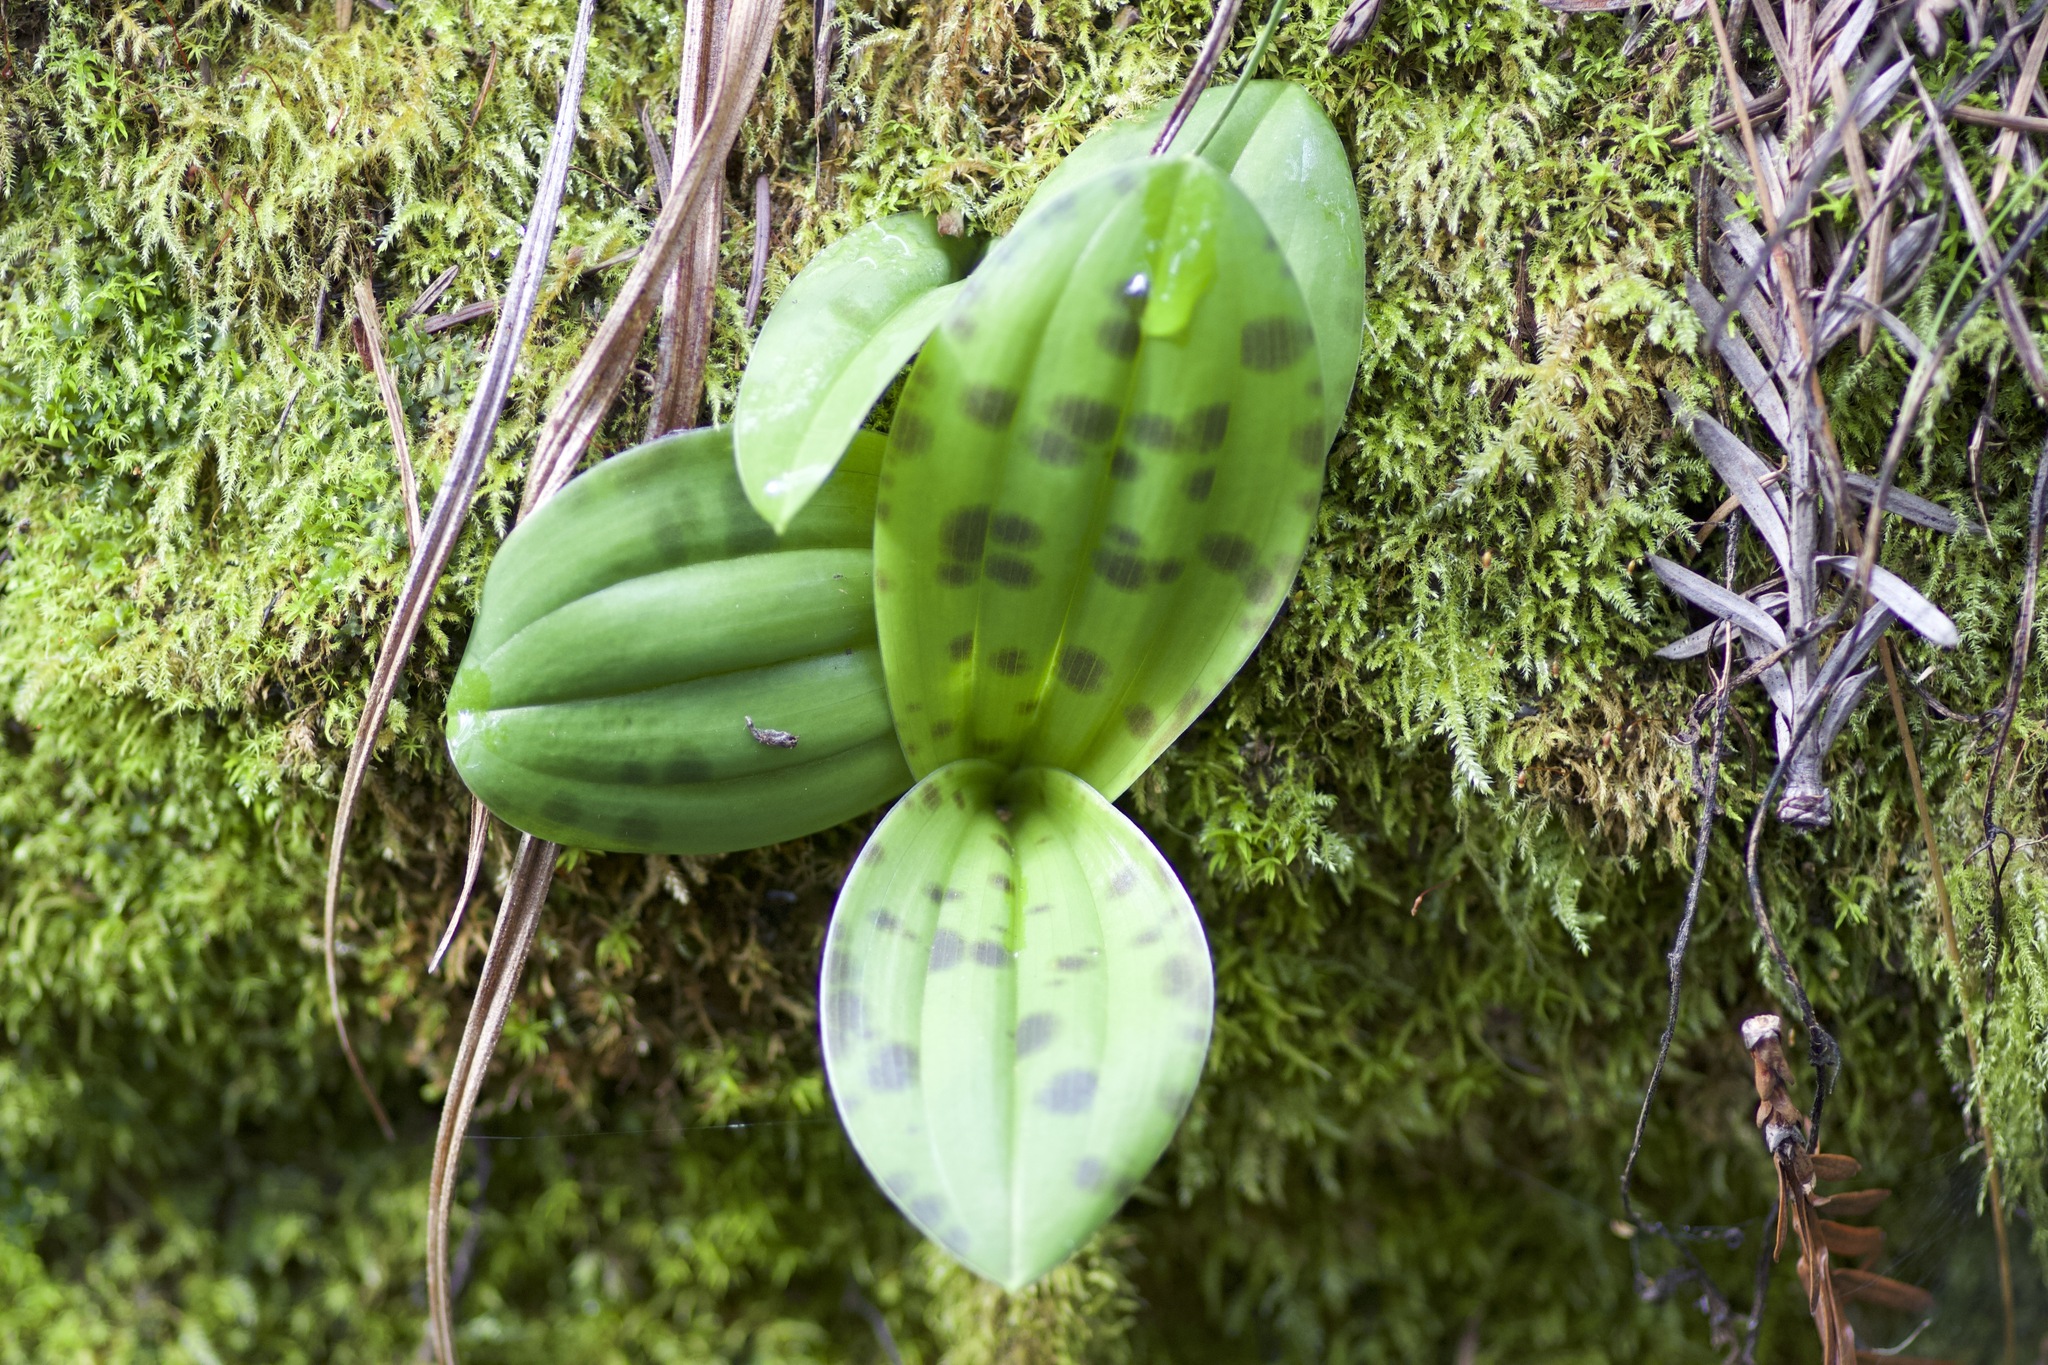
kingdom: Plantae
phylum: Tracheophyta
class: Liliopsida
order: Liliales
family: Liliaceae
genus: Scoliopus
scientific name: Scoliopus bigelovii
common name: Foetid adder's-tongue
